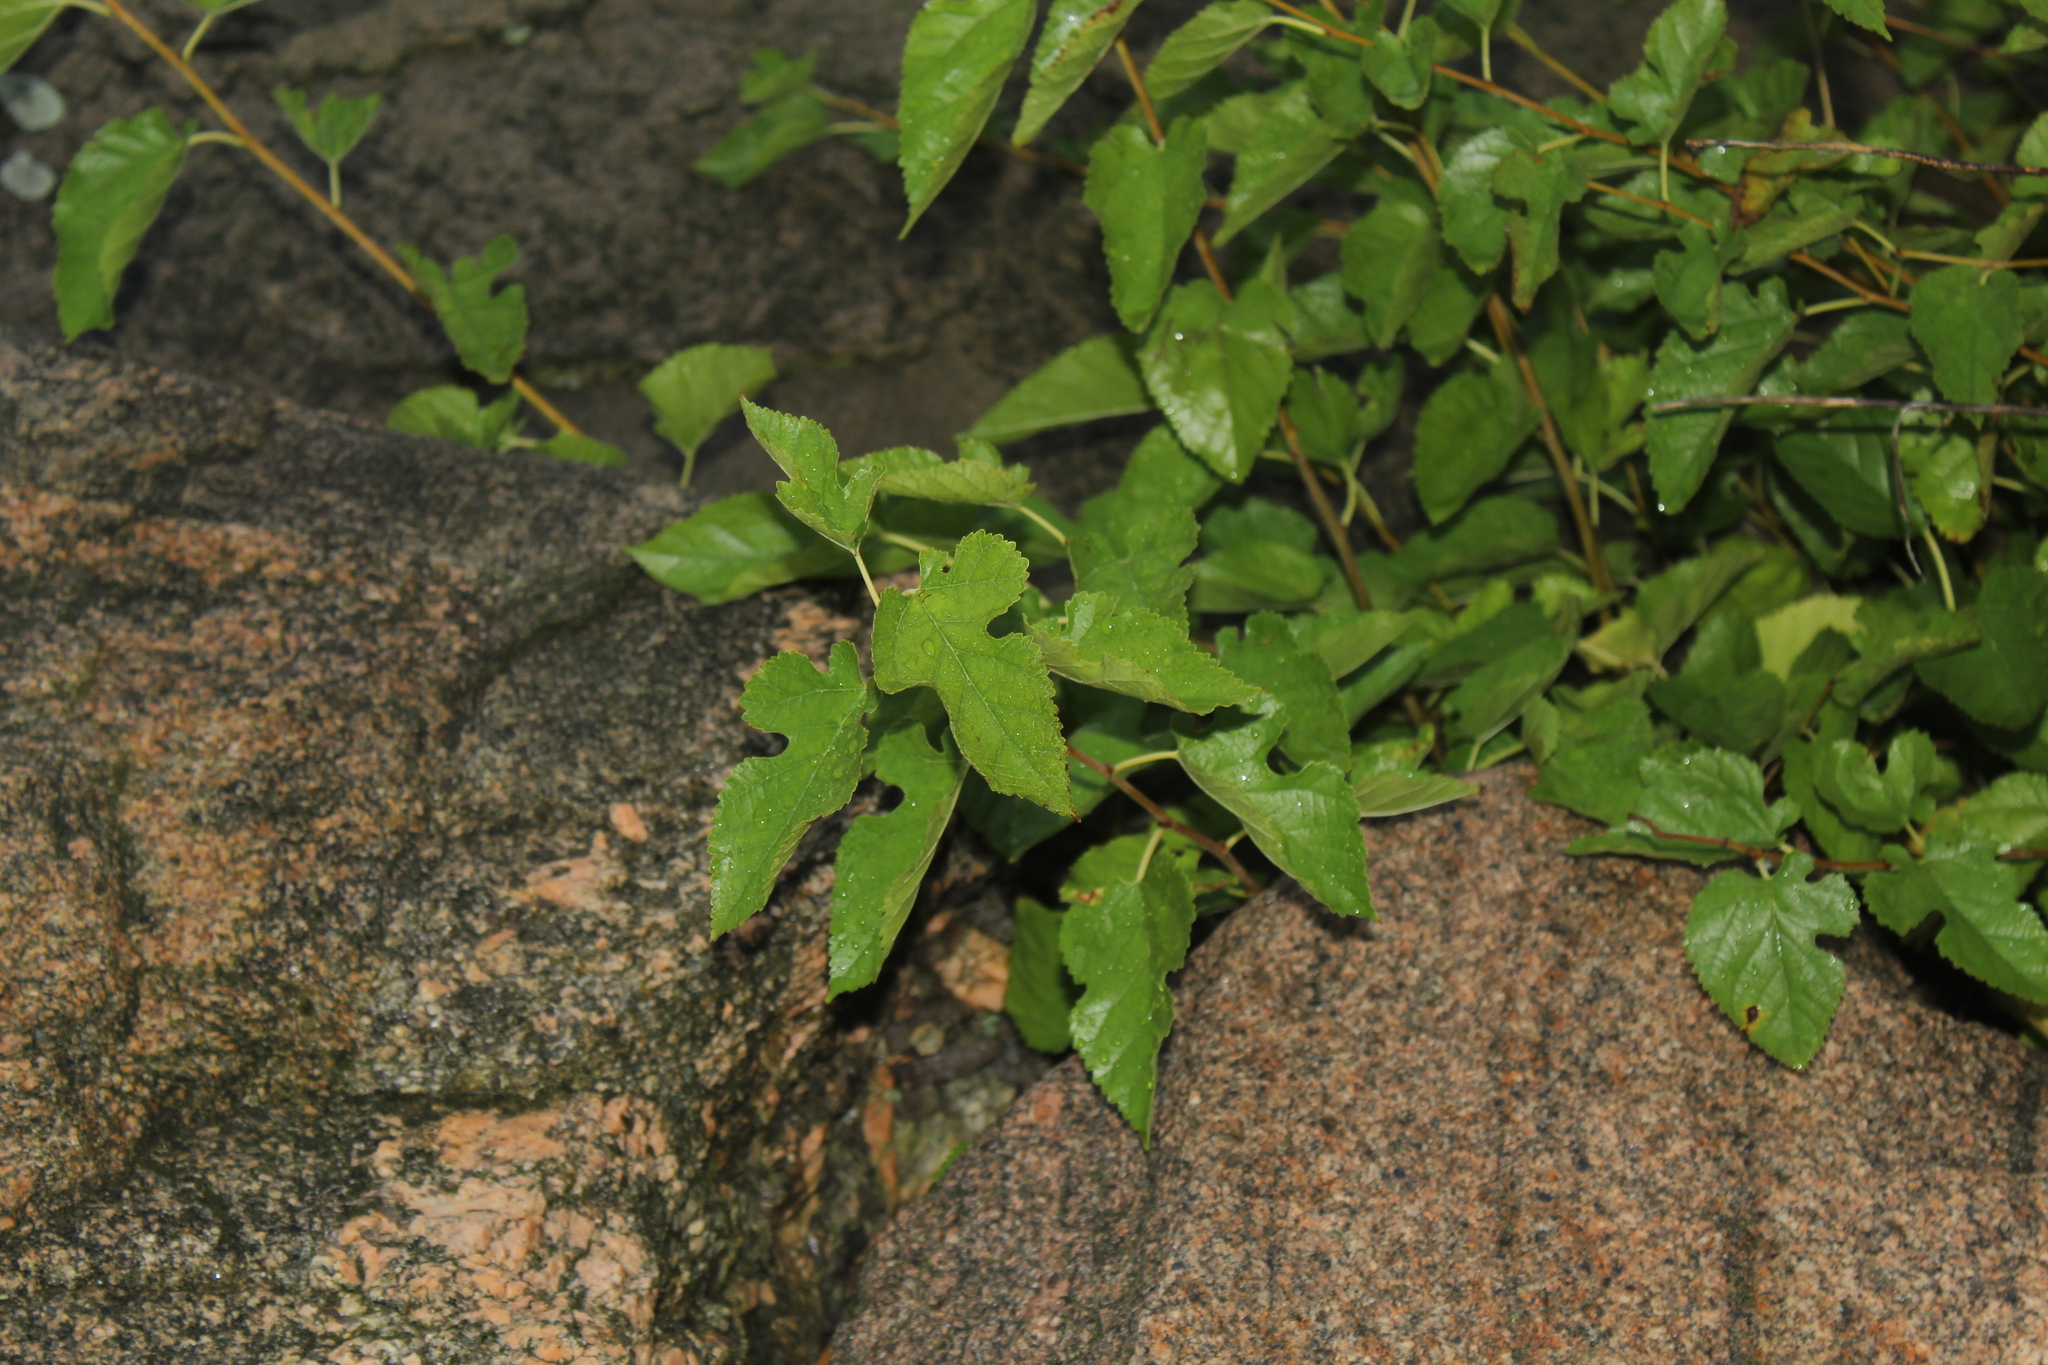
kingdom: Plantae
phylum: Tracheophyta
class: Magnoliopsida
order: Rosales
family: Moraceae
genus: Morus
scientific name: Morus alba
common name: White mulberry
